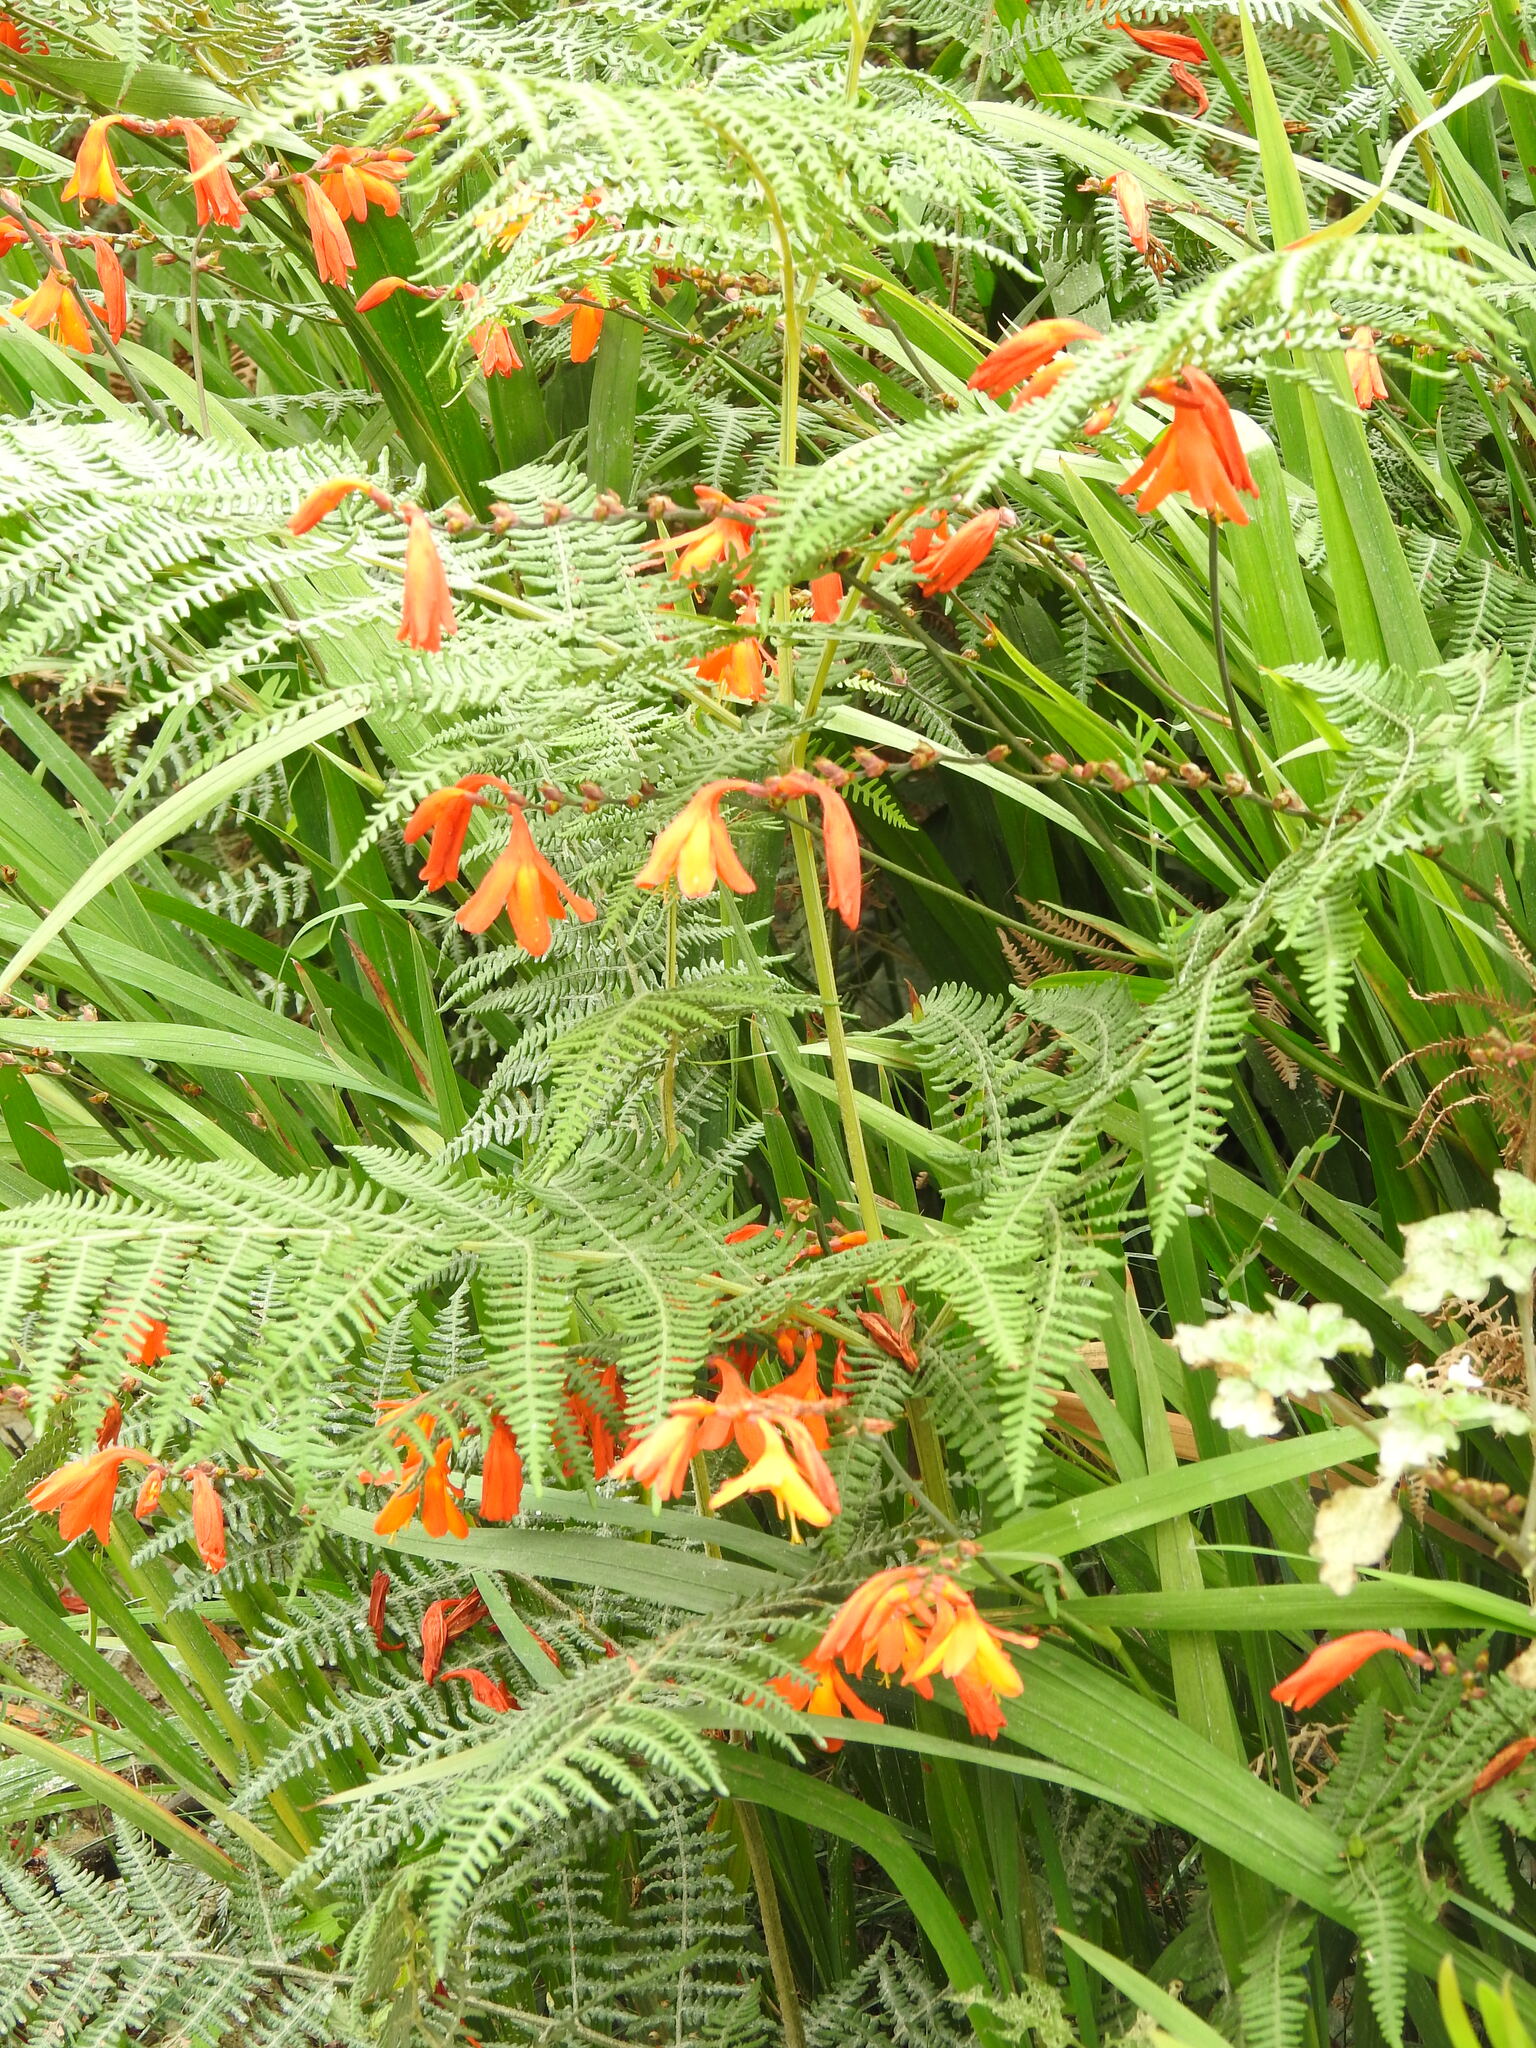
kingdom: Plantae
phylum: Tracheophyta
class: Polypodiopsida
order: Polypodiales
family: Dennstaedtiaceae
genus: Pteridium
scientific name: Pteridium aquilinum
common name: Bracken
